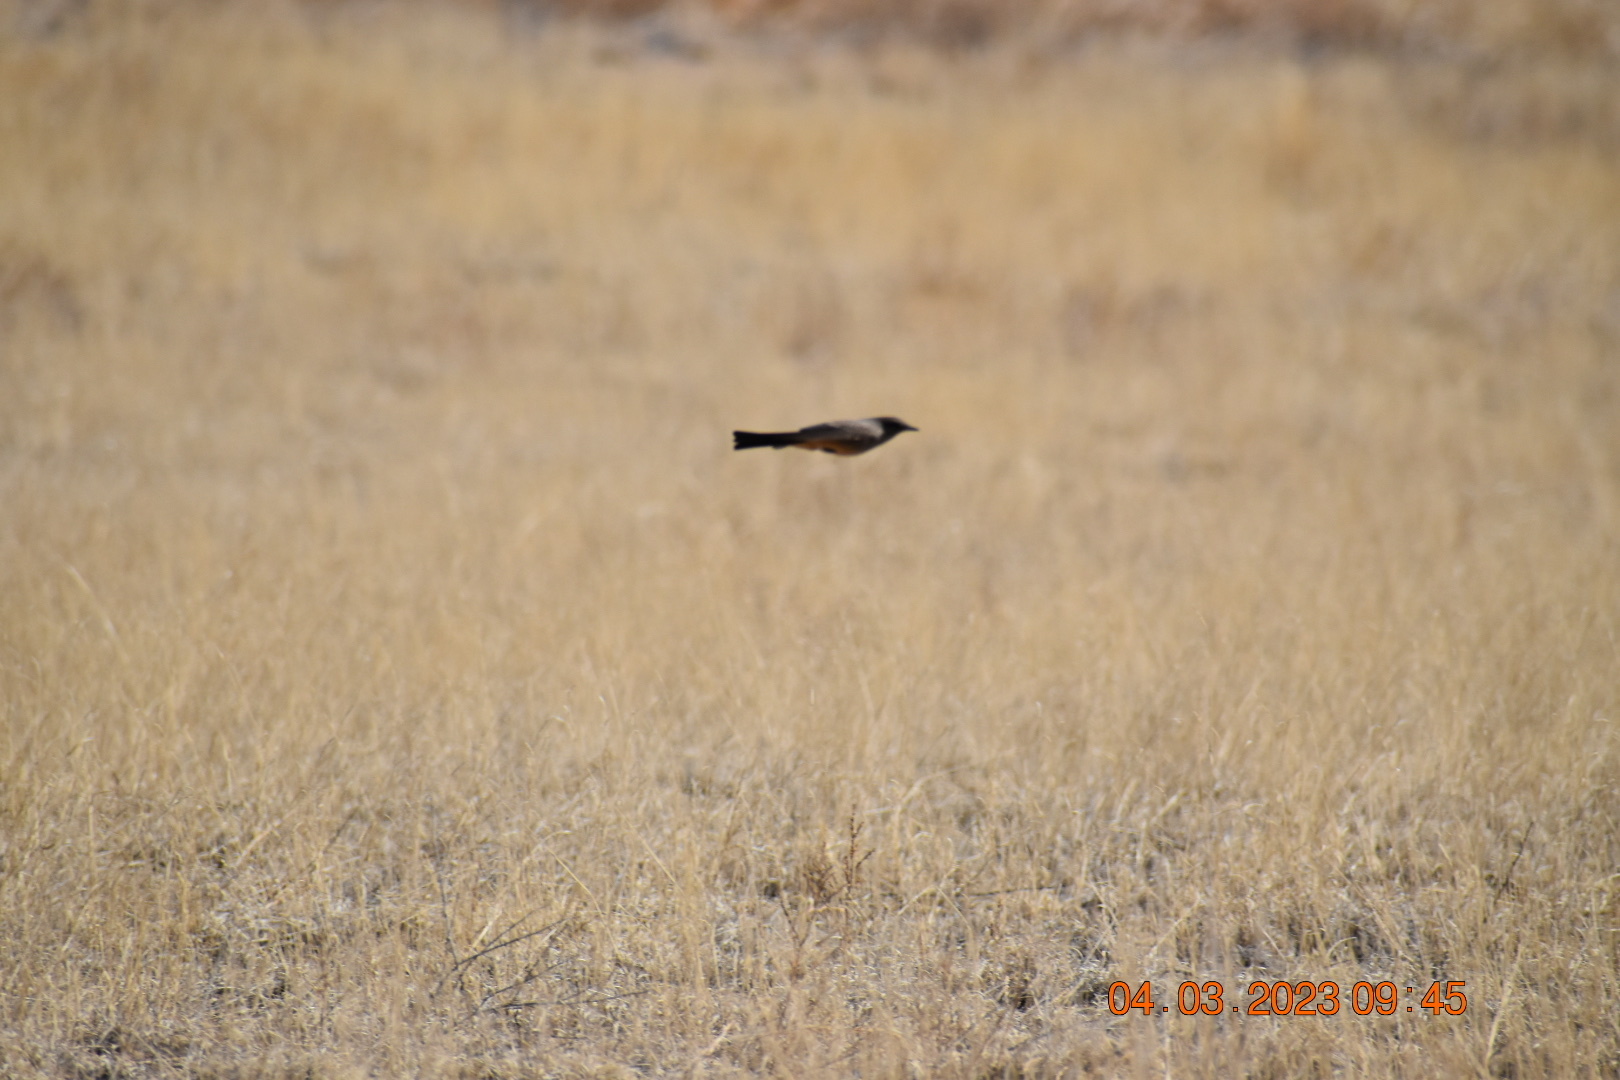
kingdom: Animalia
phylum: Chordata
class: Aves
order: Passeriformes
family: Tyrannidae
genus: Sayornis
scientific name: Sayornis saya
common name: Say's phoebe
